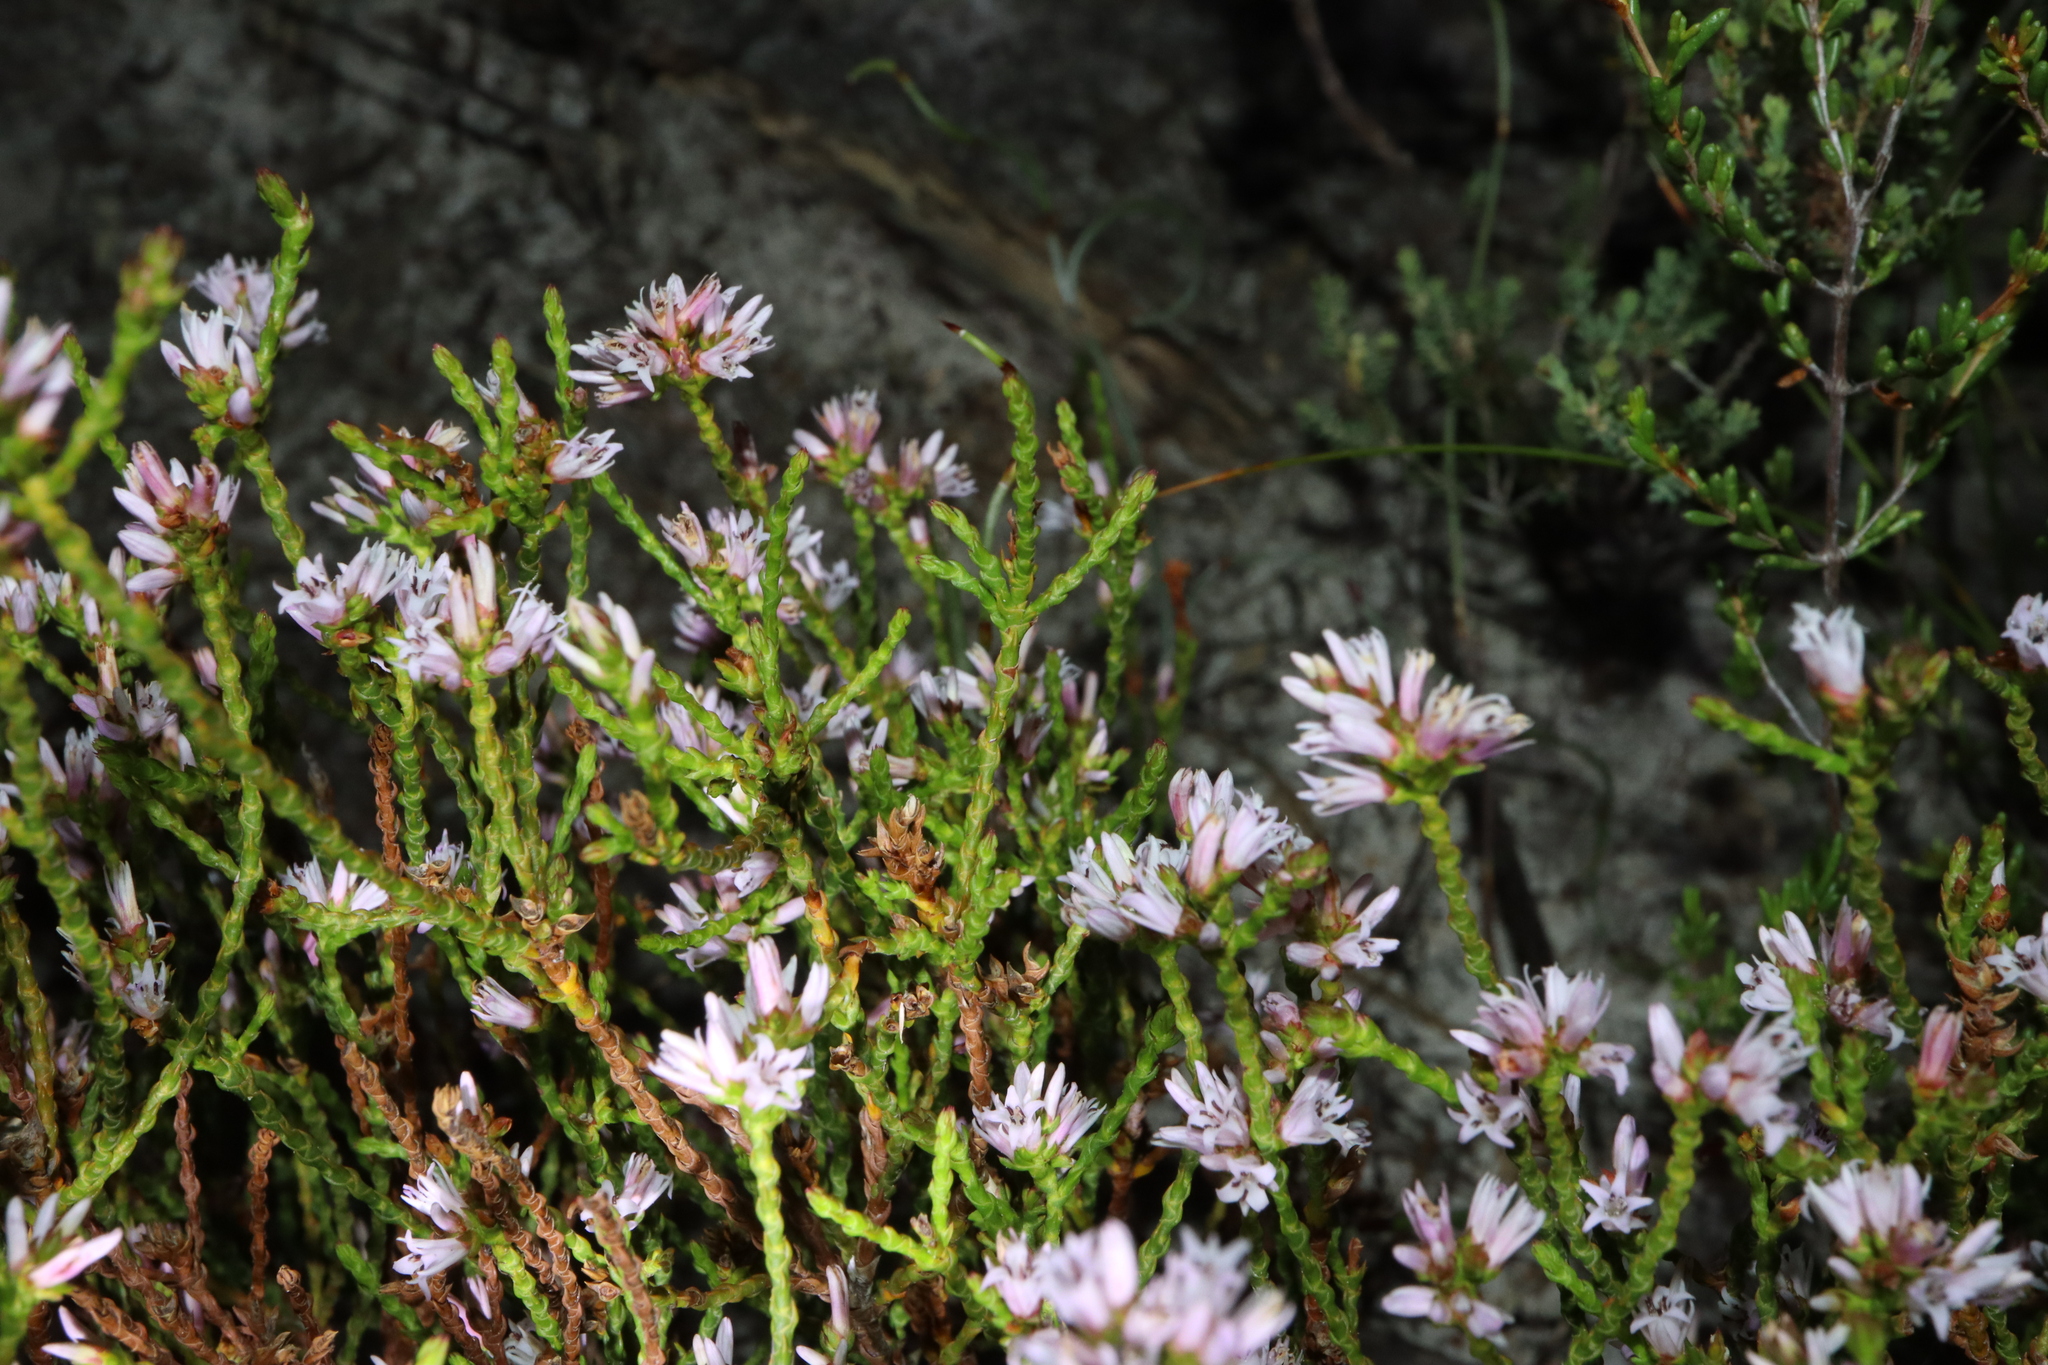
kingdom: Plantae
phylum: Tracheophyta
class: Magnoliopsida
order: Ericales
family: Ericaceae
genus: Andersonia
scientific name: Andersonia parvifolia
